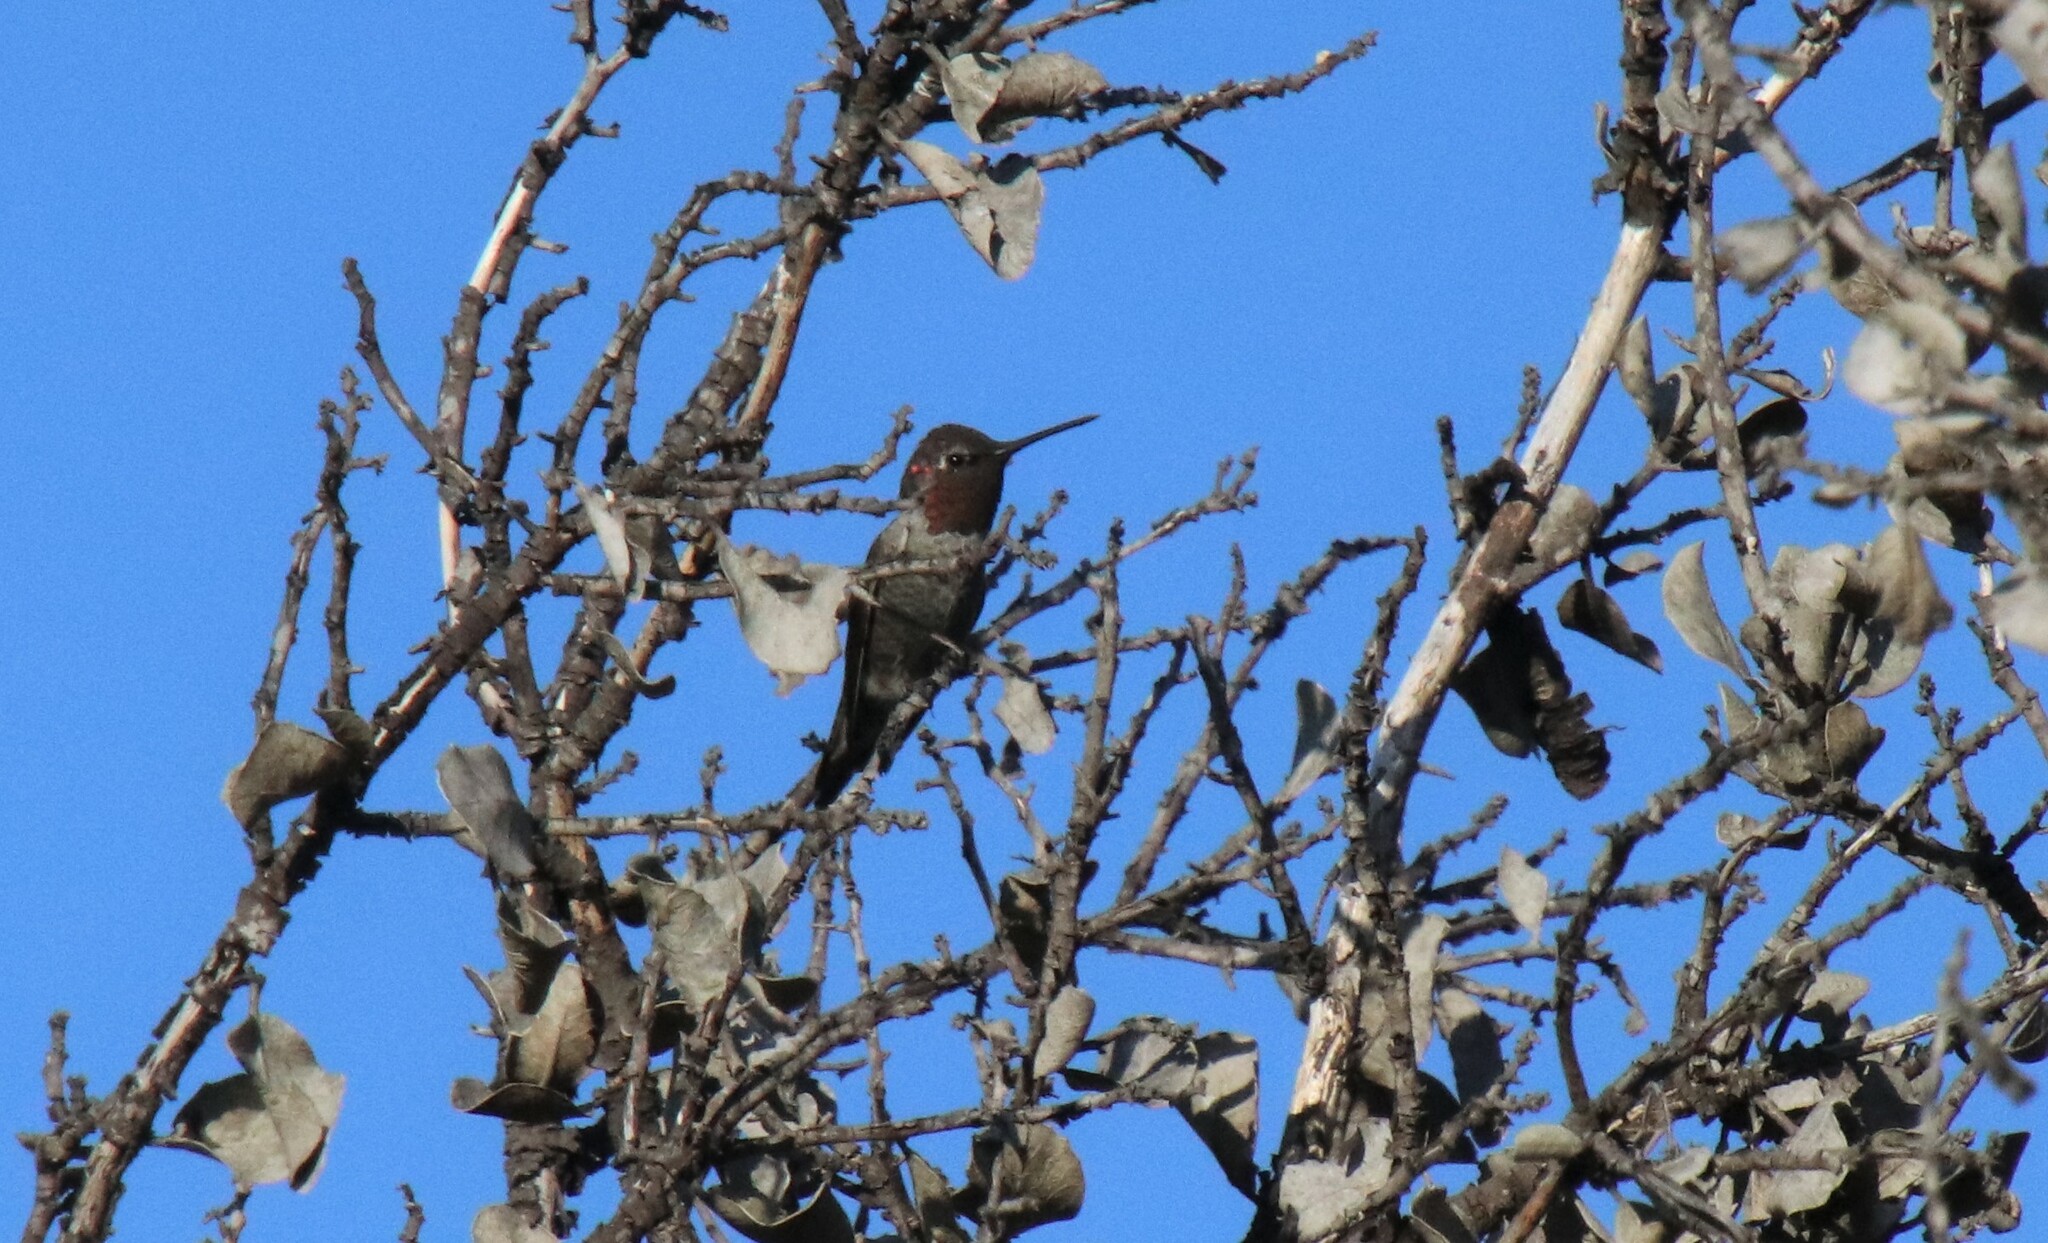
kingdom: Animalia
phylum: Chordata
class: Aves
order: Apodiformes
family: Trochilidae
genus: Calypte
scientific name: Calypte anna
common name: Anna's hummingbird
